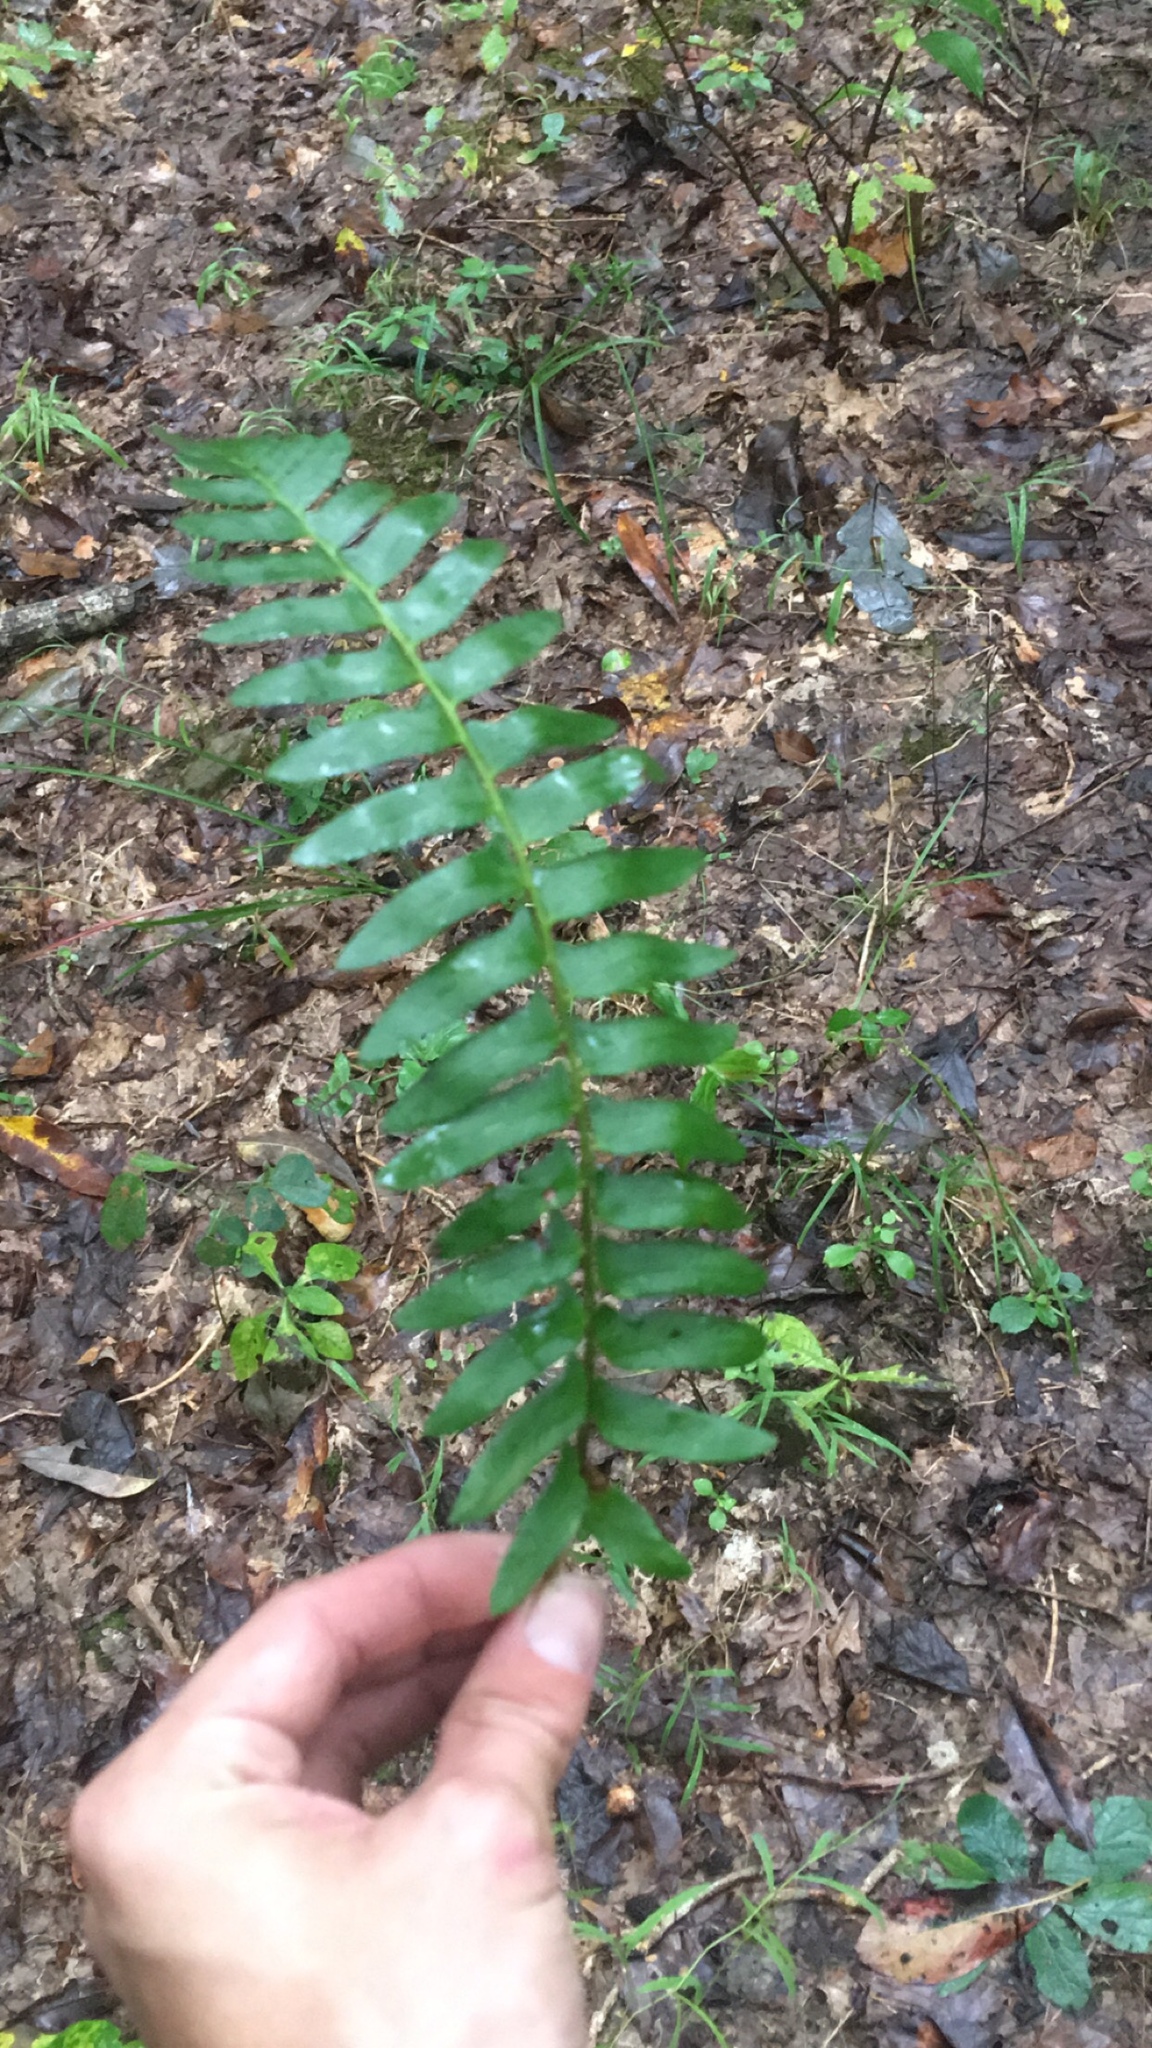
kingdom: Plantae
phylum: Tracheophyta
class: Polypodiopsida
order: Polypodiales
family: Dryopteridaceae
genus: Polystichum
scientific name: Polystichum acrostichoides
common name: Christmas fern
